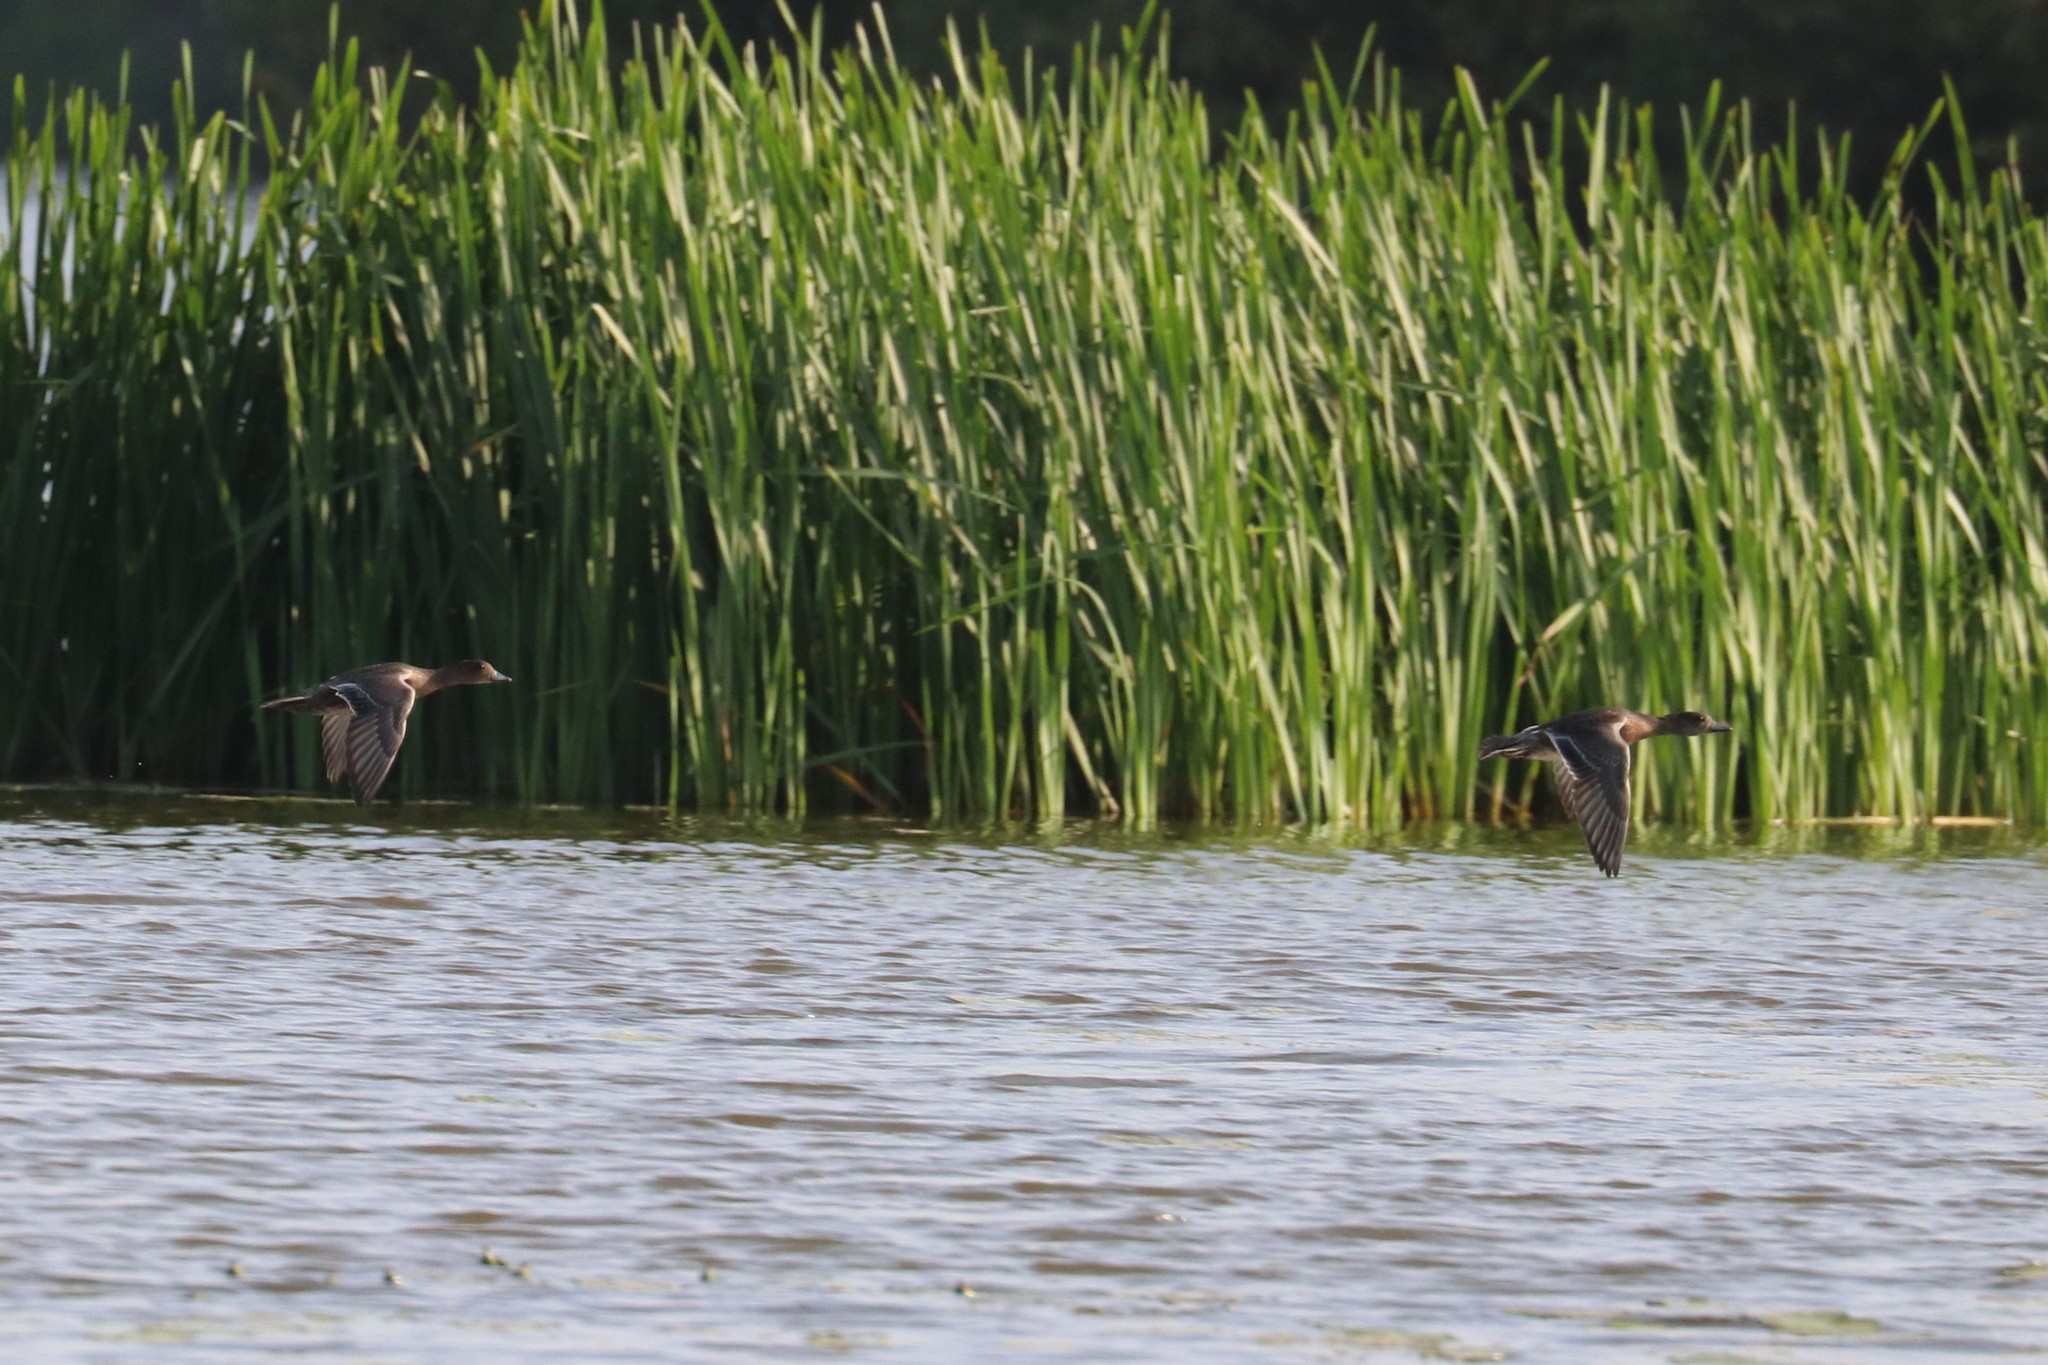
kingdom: Animalia
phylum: Chordata
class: Aves
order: Anseriformes
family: Anatidae
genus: Mareca
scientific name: Mareca penelope
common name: Eurasian wigeon
